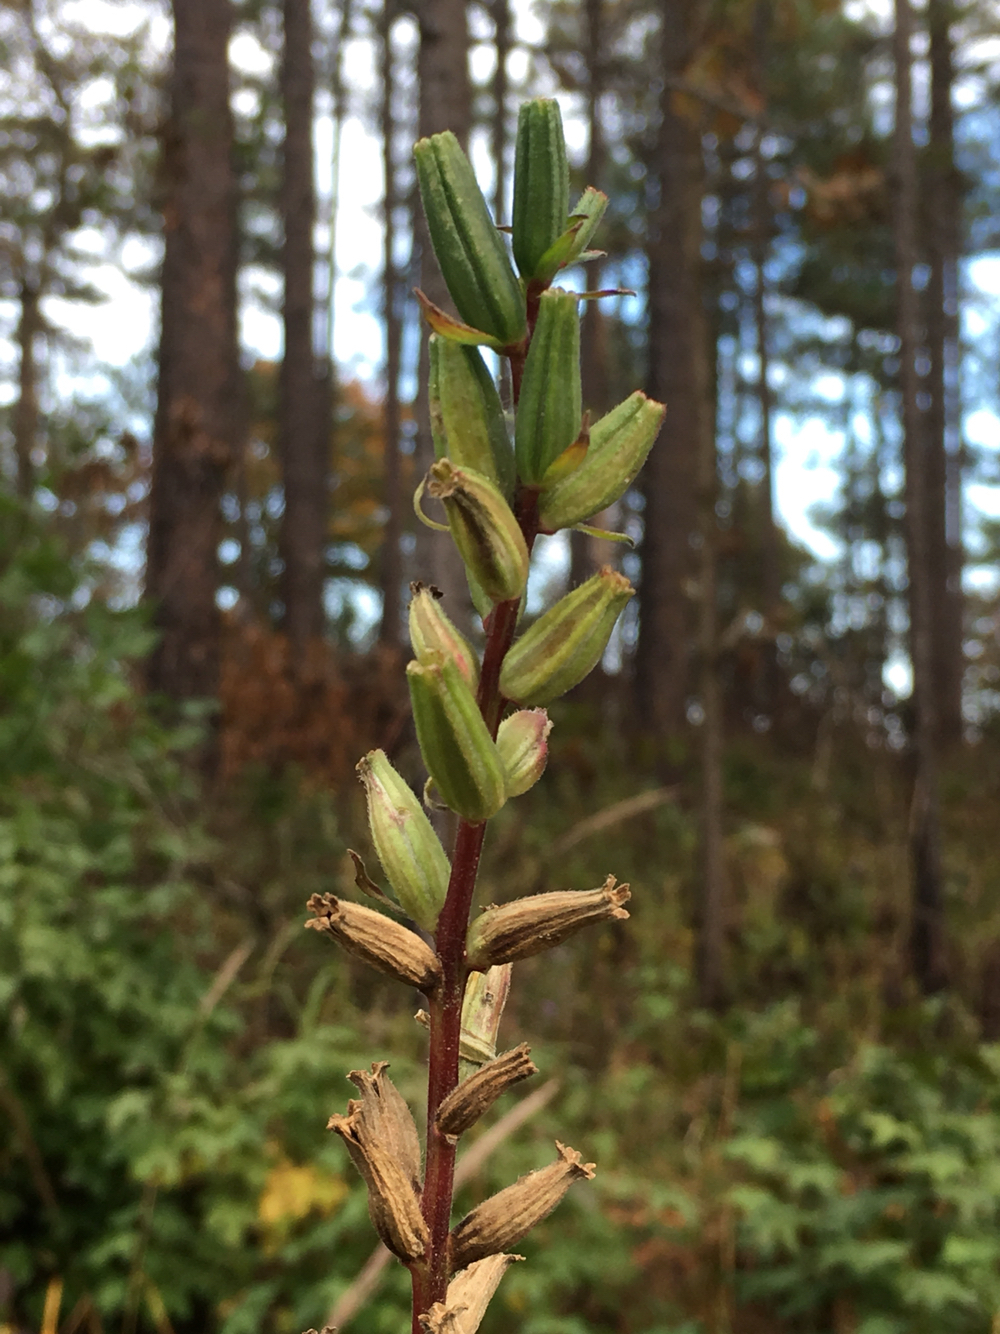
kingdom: Plantae
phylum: Tracheophyta
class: Magnoliopsida
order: Myrtales
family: Onagraceae
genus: Oenothera
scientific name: Oenothera biennis
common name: Common evening-primrose
